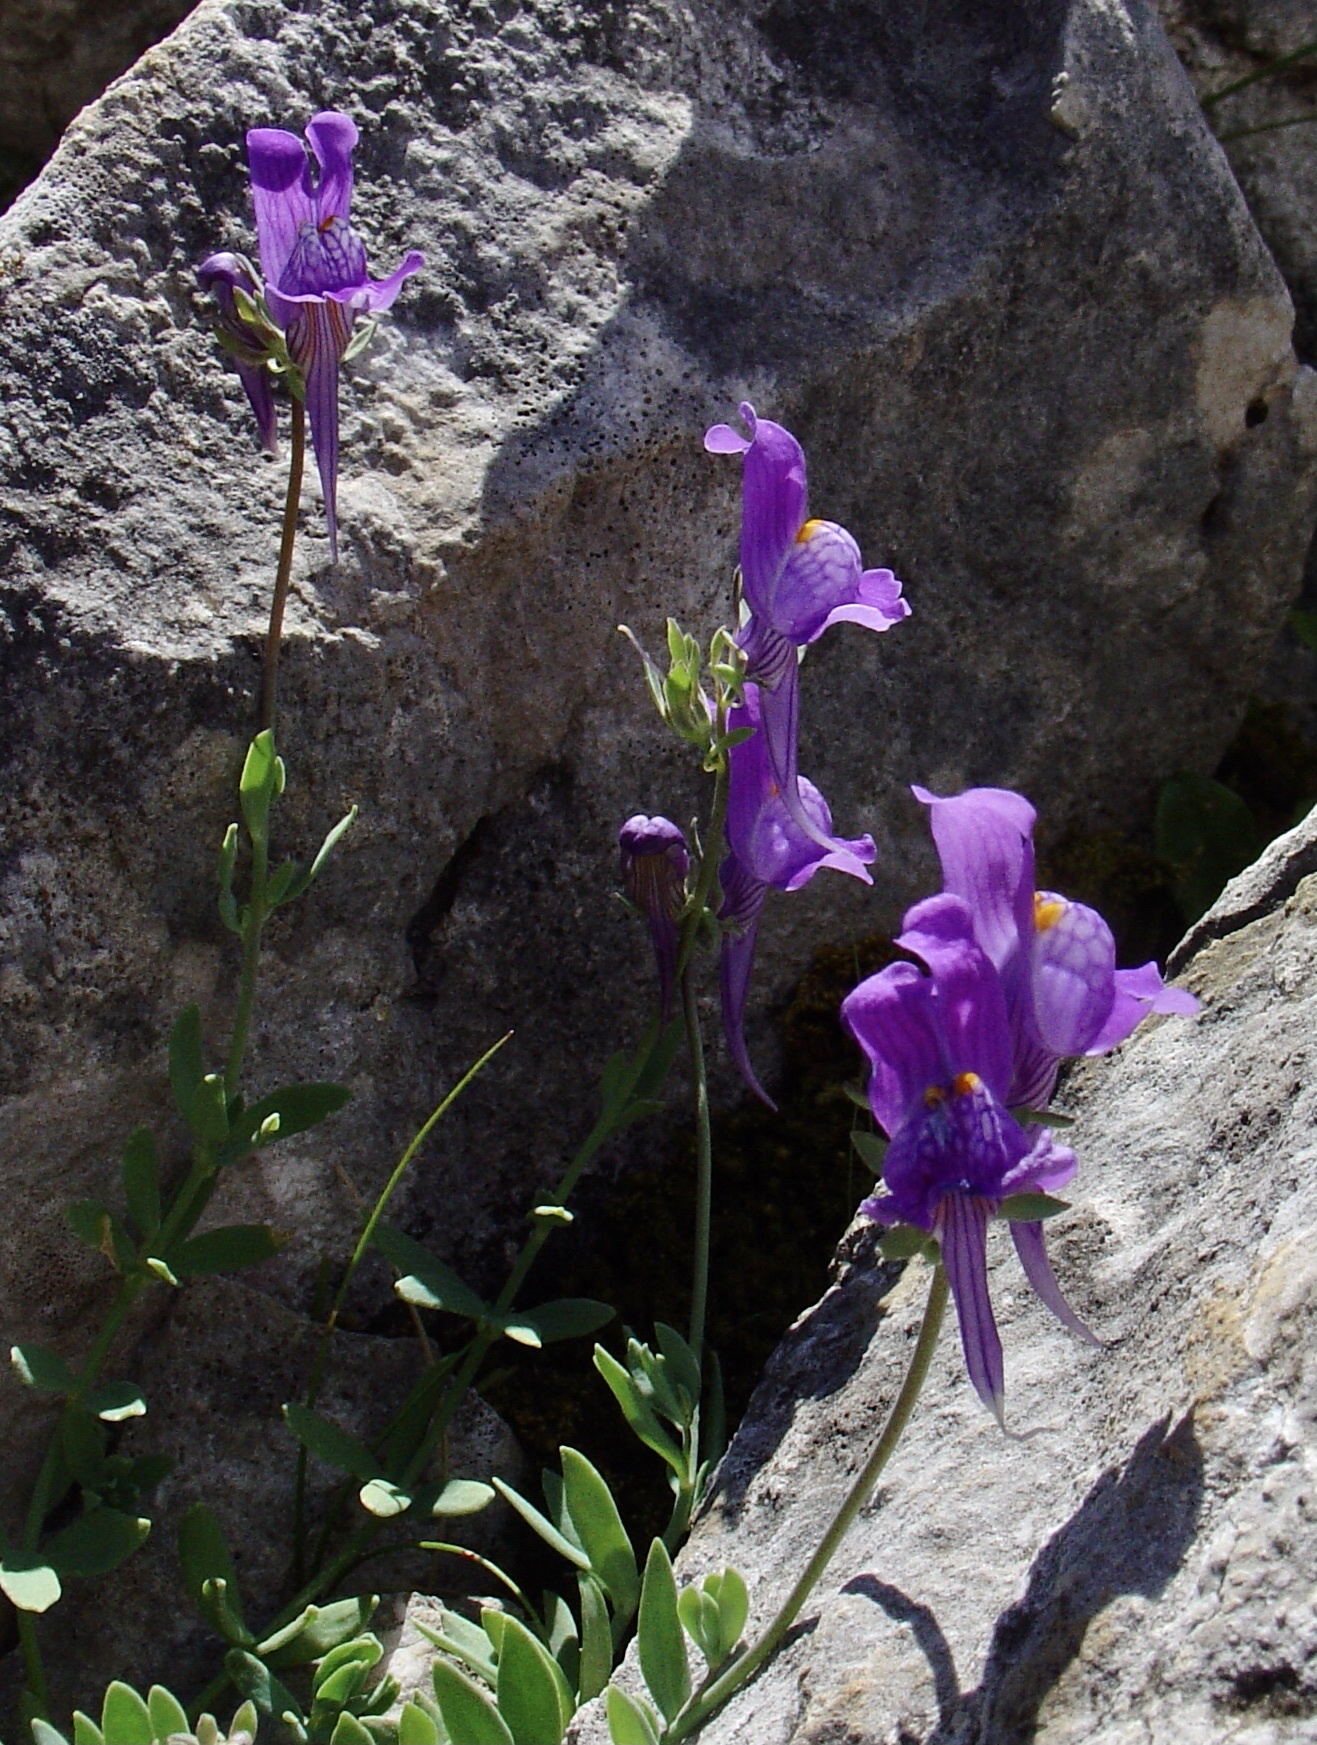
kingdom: Plantae
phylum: Tracheophyta
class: Magnoliopsida
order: Lamiales
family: Plantaginaceae
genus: Linaria
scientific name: Linaria alpina
